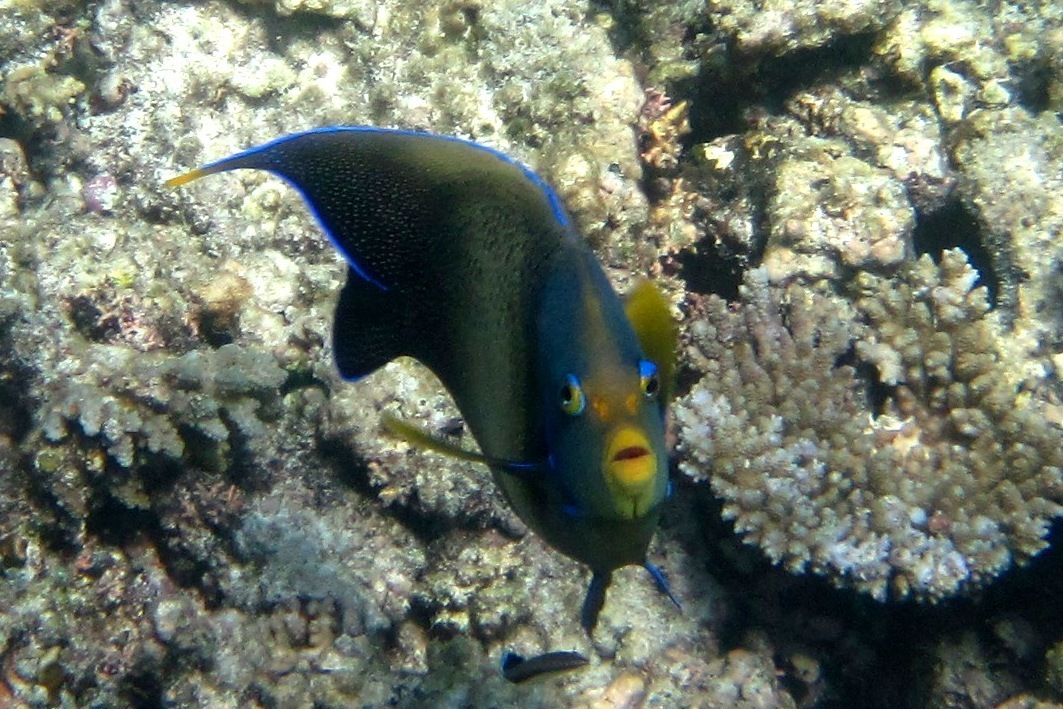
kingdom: Animalia
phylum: Chordata
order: Perciformes
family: Pomacanthidae
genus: Pomacanthus
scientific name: Pomacanthus semicirculatus
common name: Semicircle angelfish
